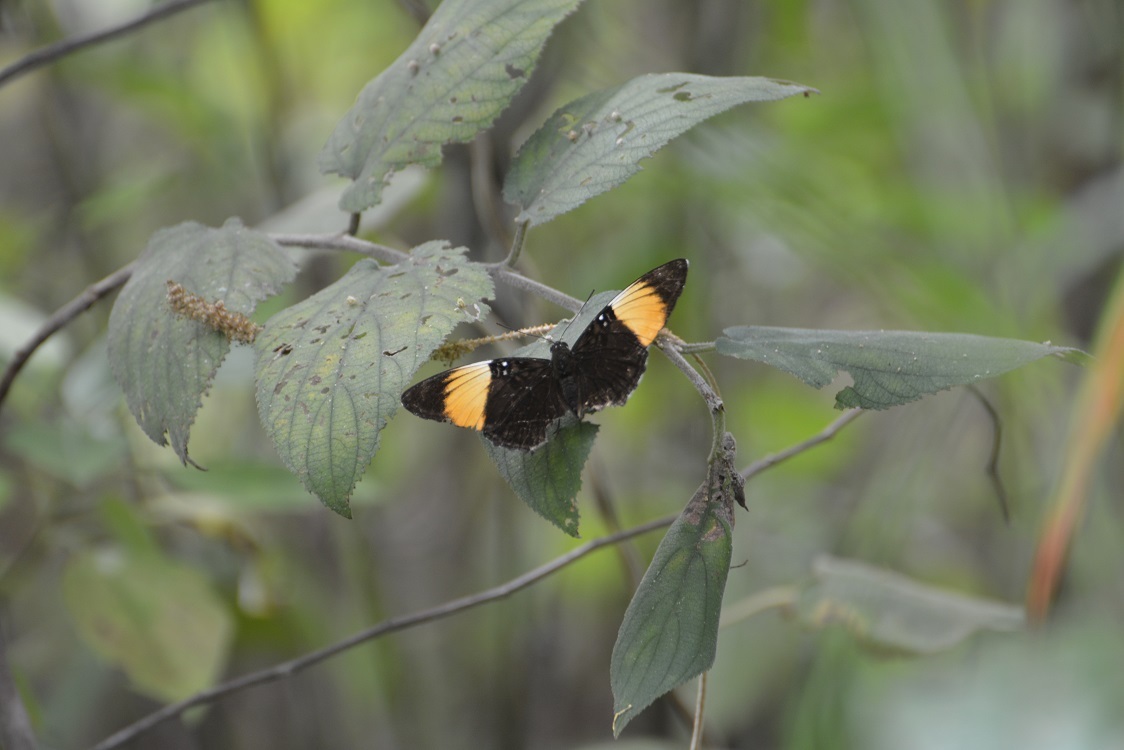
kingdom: Animalia
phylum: Arthropoda
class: Insecta
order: Lepidoptera
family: Nymphalidae
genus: Limenitis
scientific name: Limenitis melanthe
